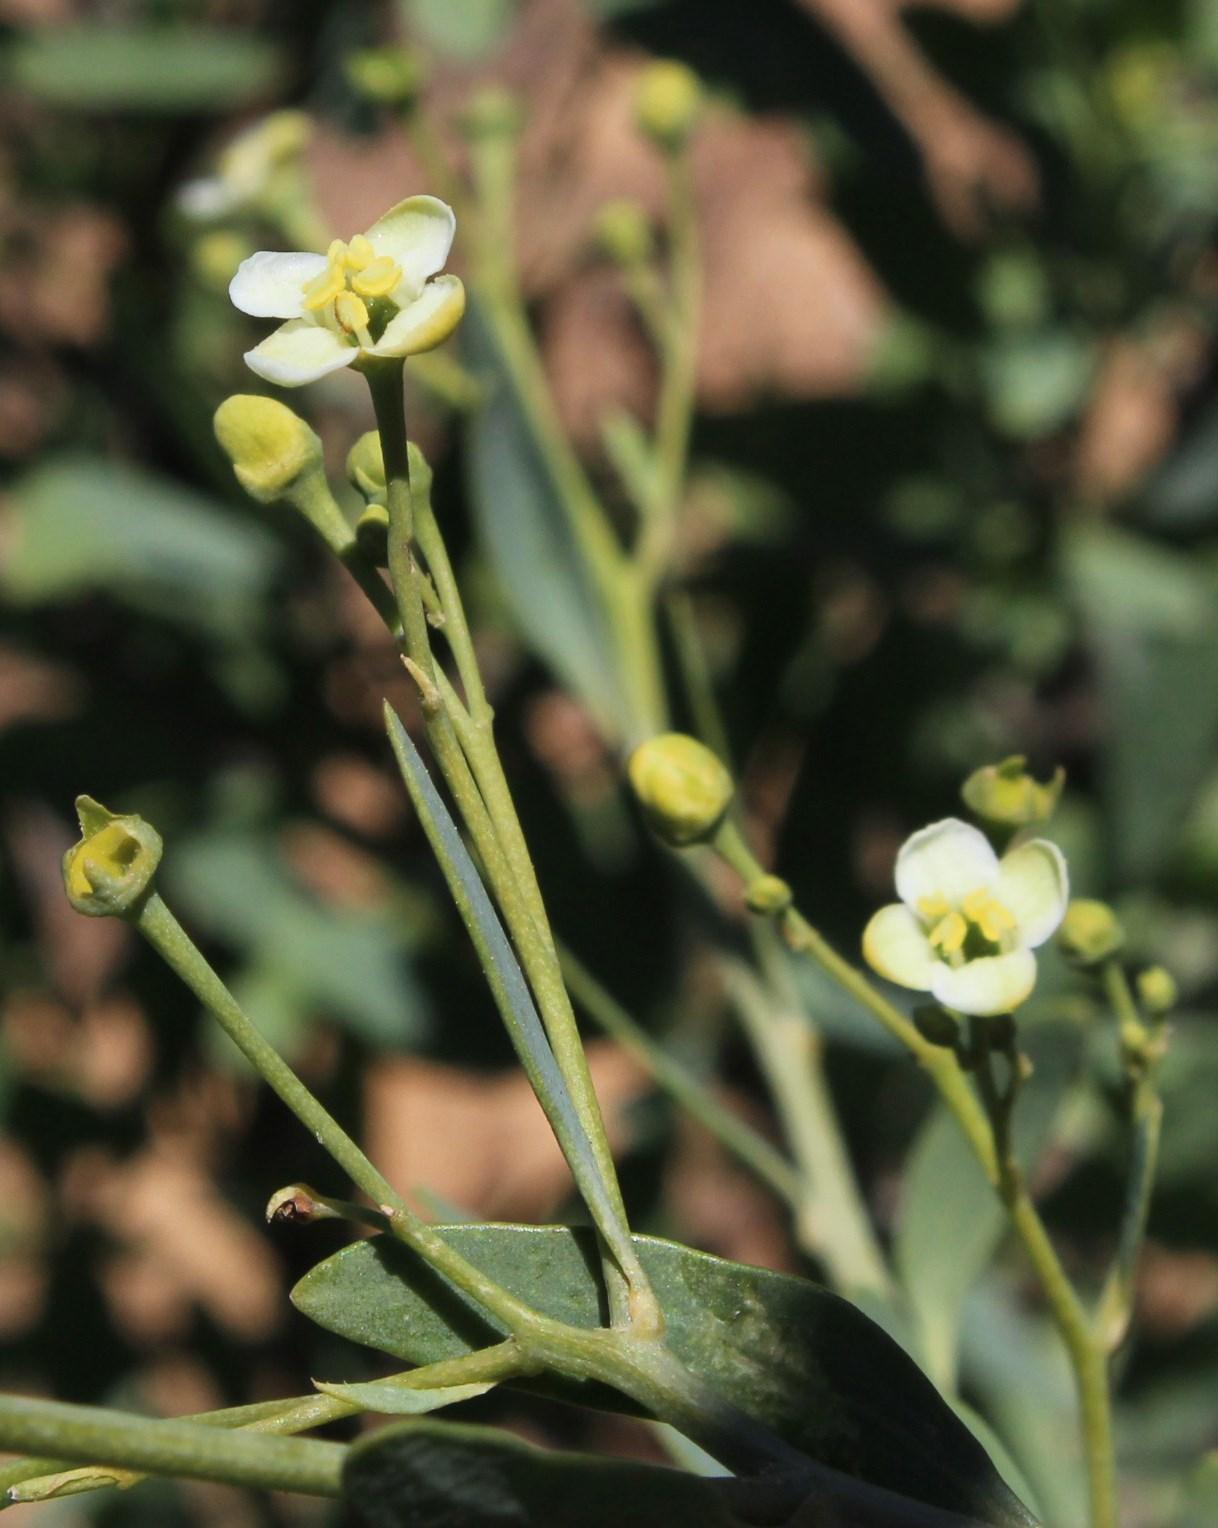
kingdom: Plantae
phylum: Tracheophyta
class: Magnoliopsida
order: Solanales
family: Montiniaceae
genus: Montinia
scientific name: Montinia caryophyllacea
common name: Wild clove-bush
